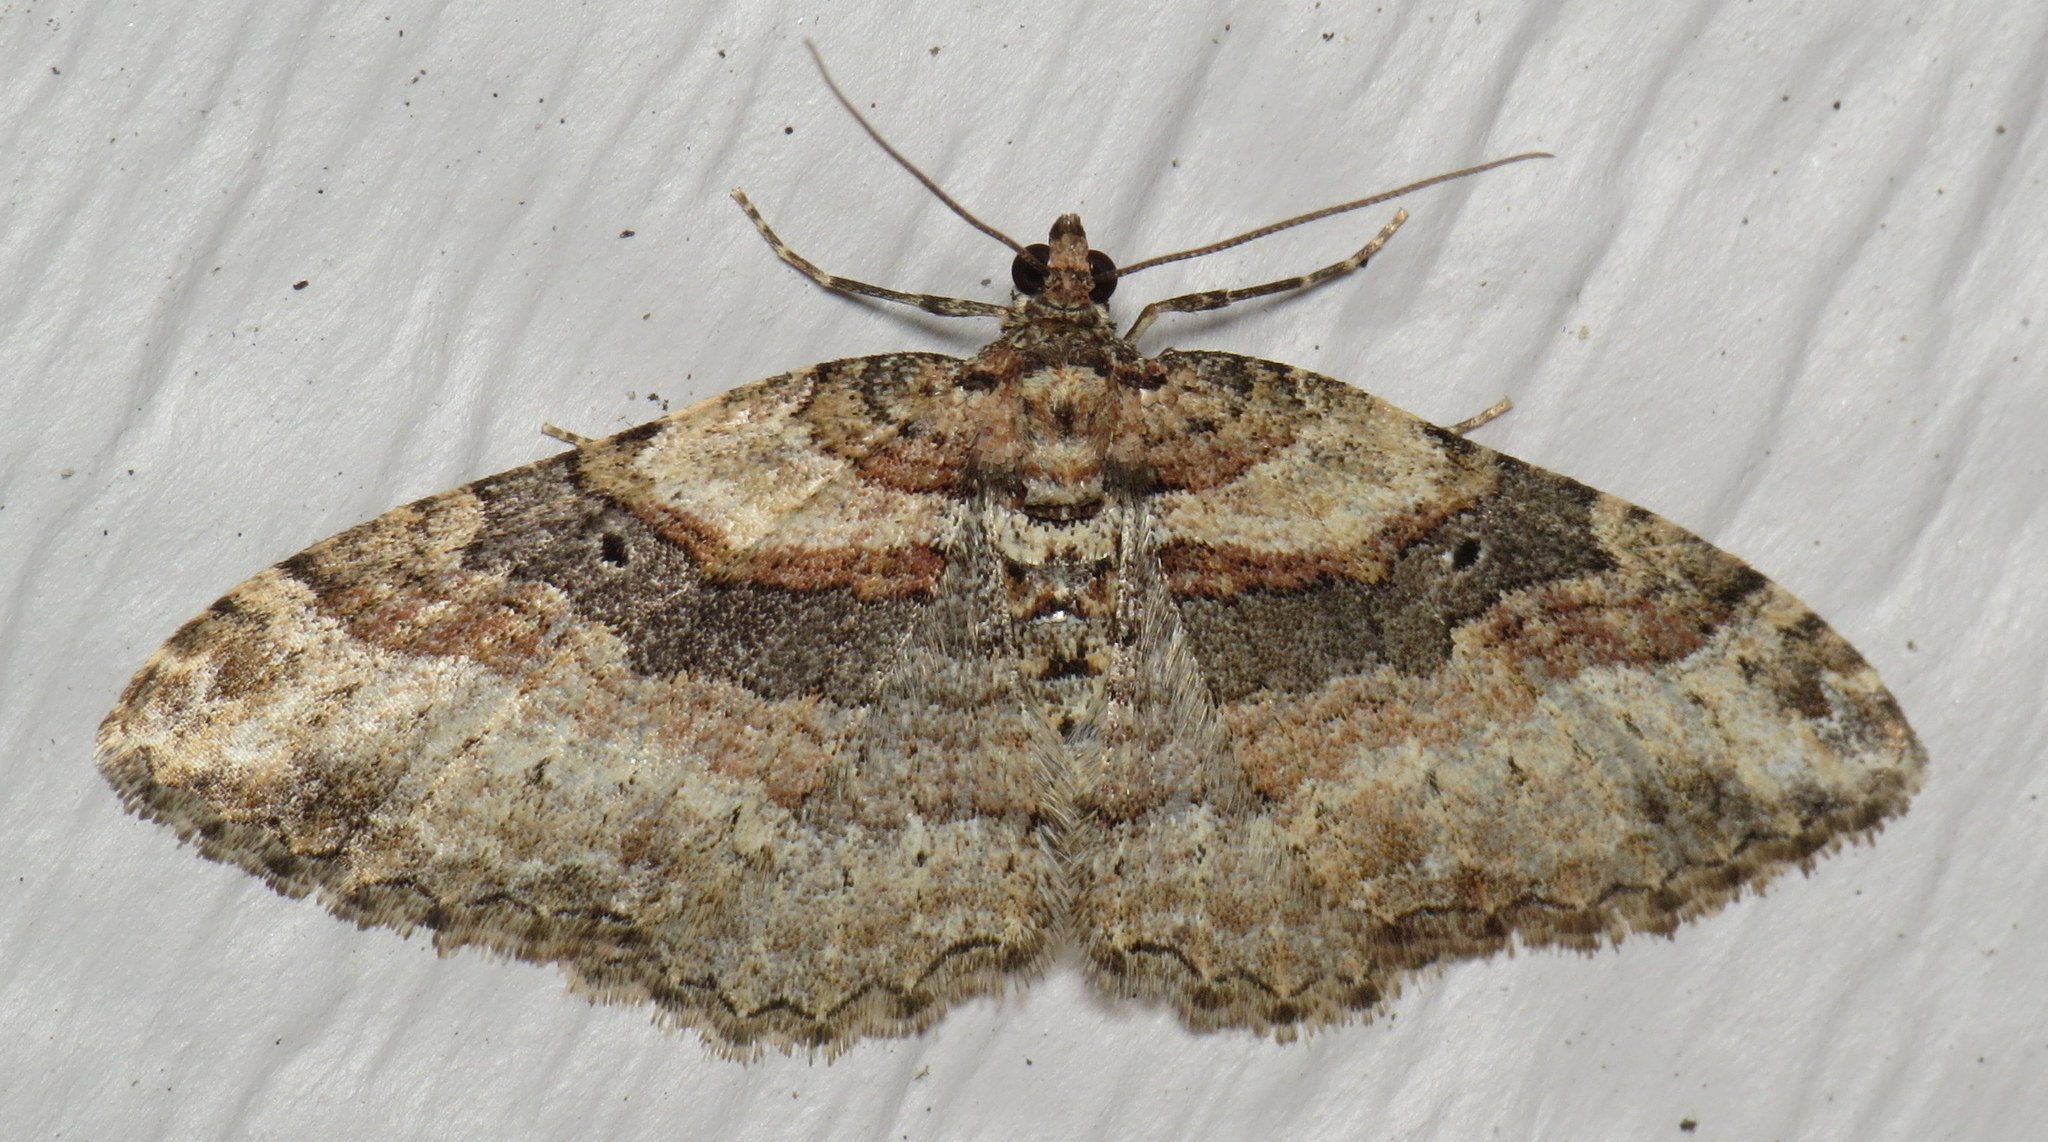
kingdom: Animalia
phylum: Arthropoda
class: Insecta
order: Lepidoptera
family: Geometridae
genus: Costaconvexa
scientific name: Costaconvexa centrostrigaria
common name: Bent-line carpet
